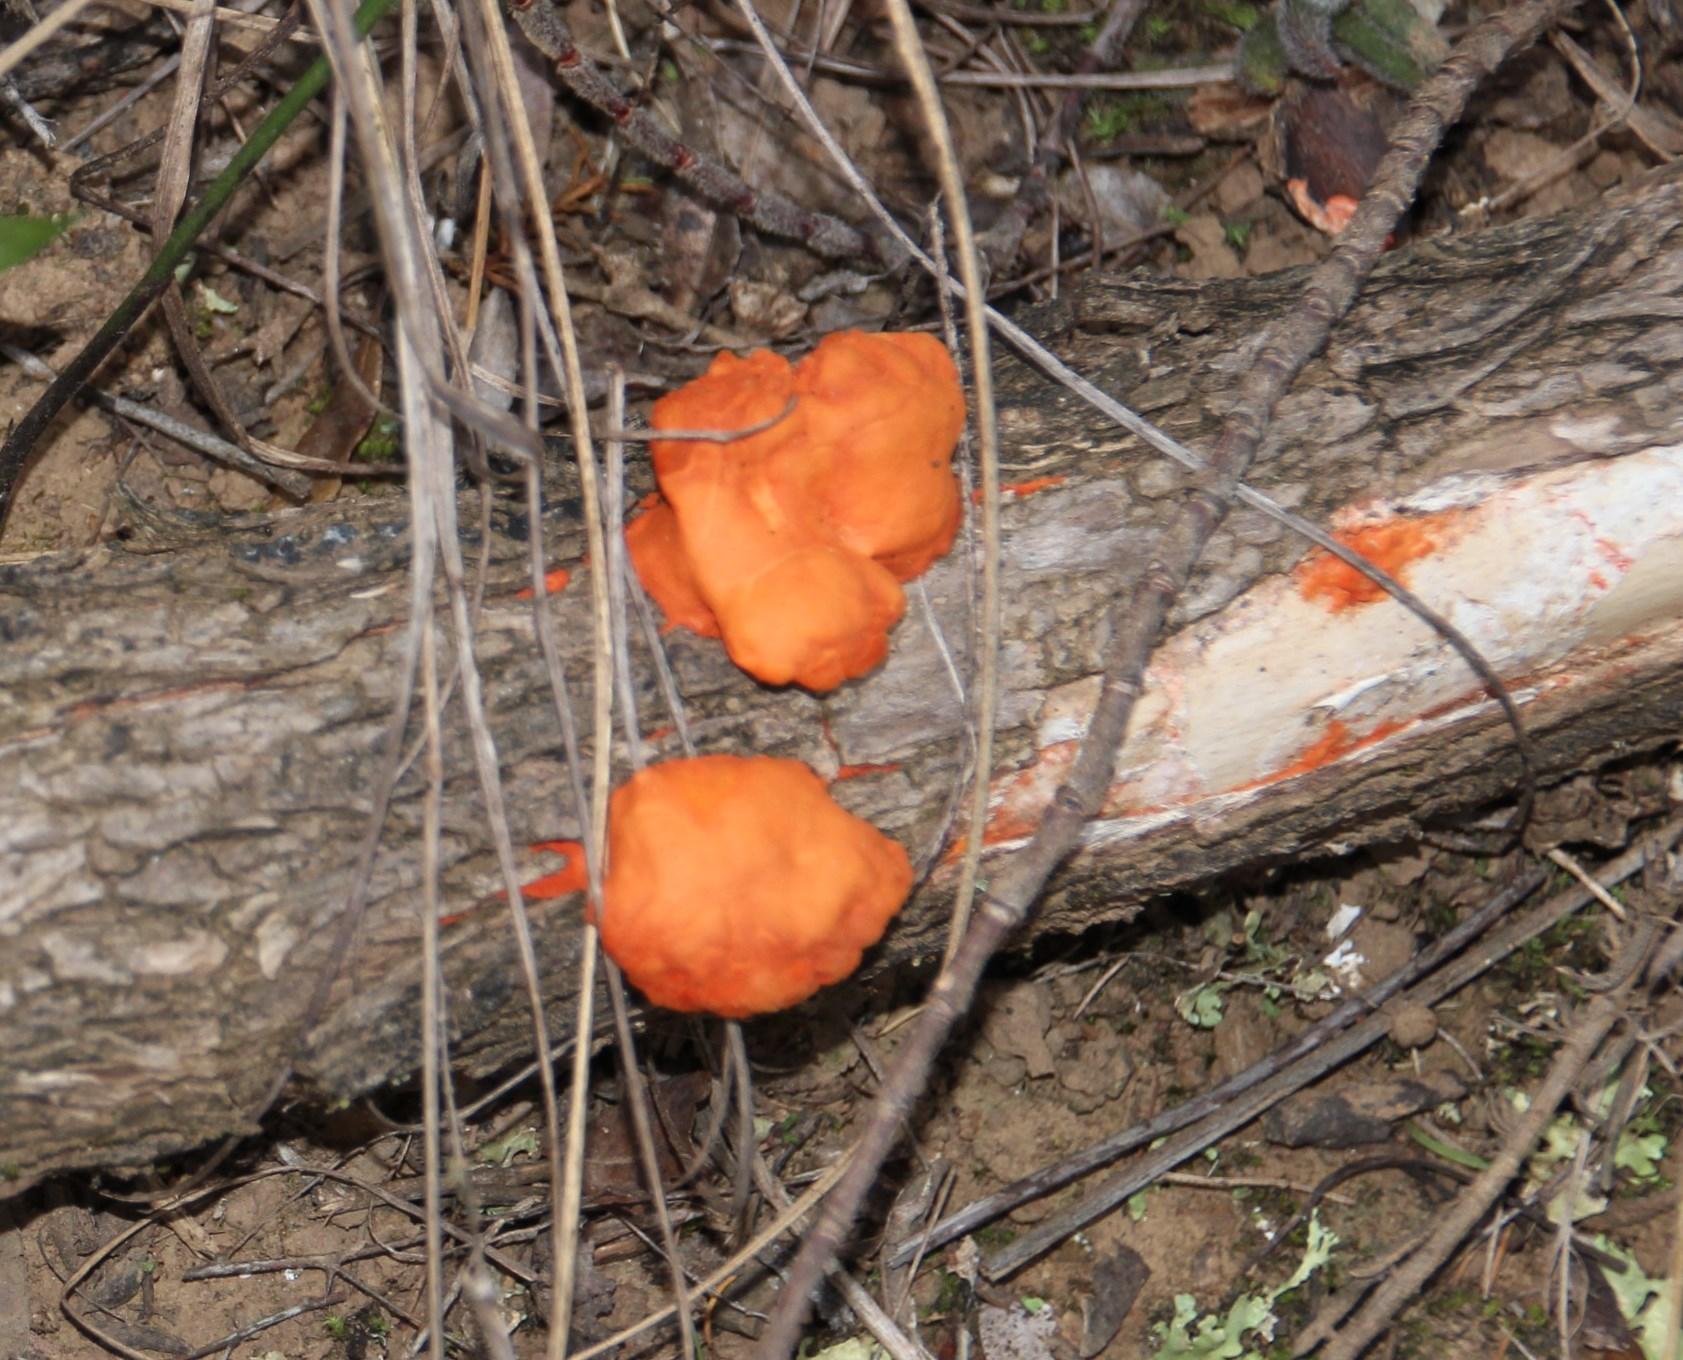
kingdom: Fungi
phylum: Basidiomycota
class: Agaricomycetes
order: Polyporales
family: Polyporaceae
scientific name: Polyporaceae
